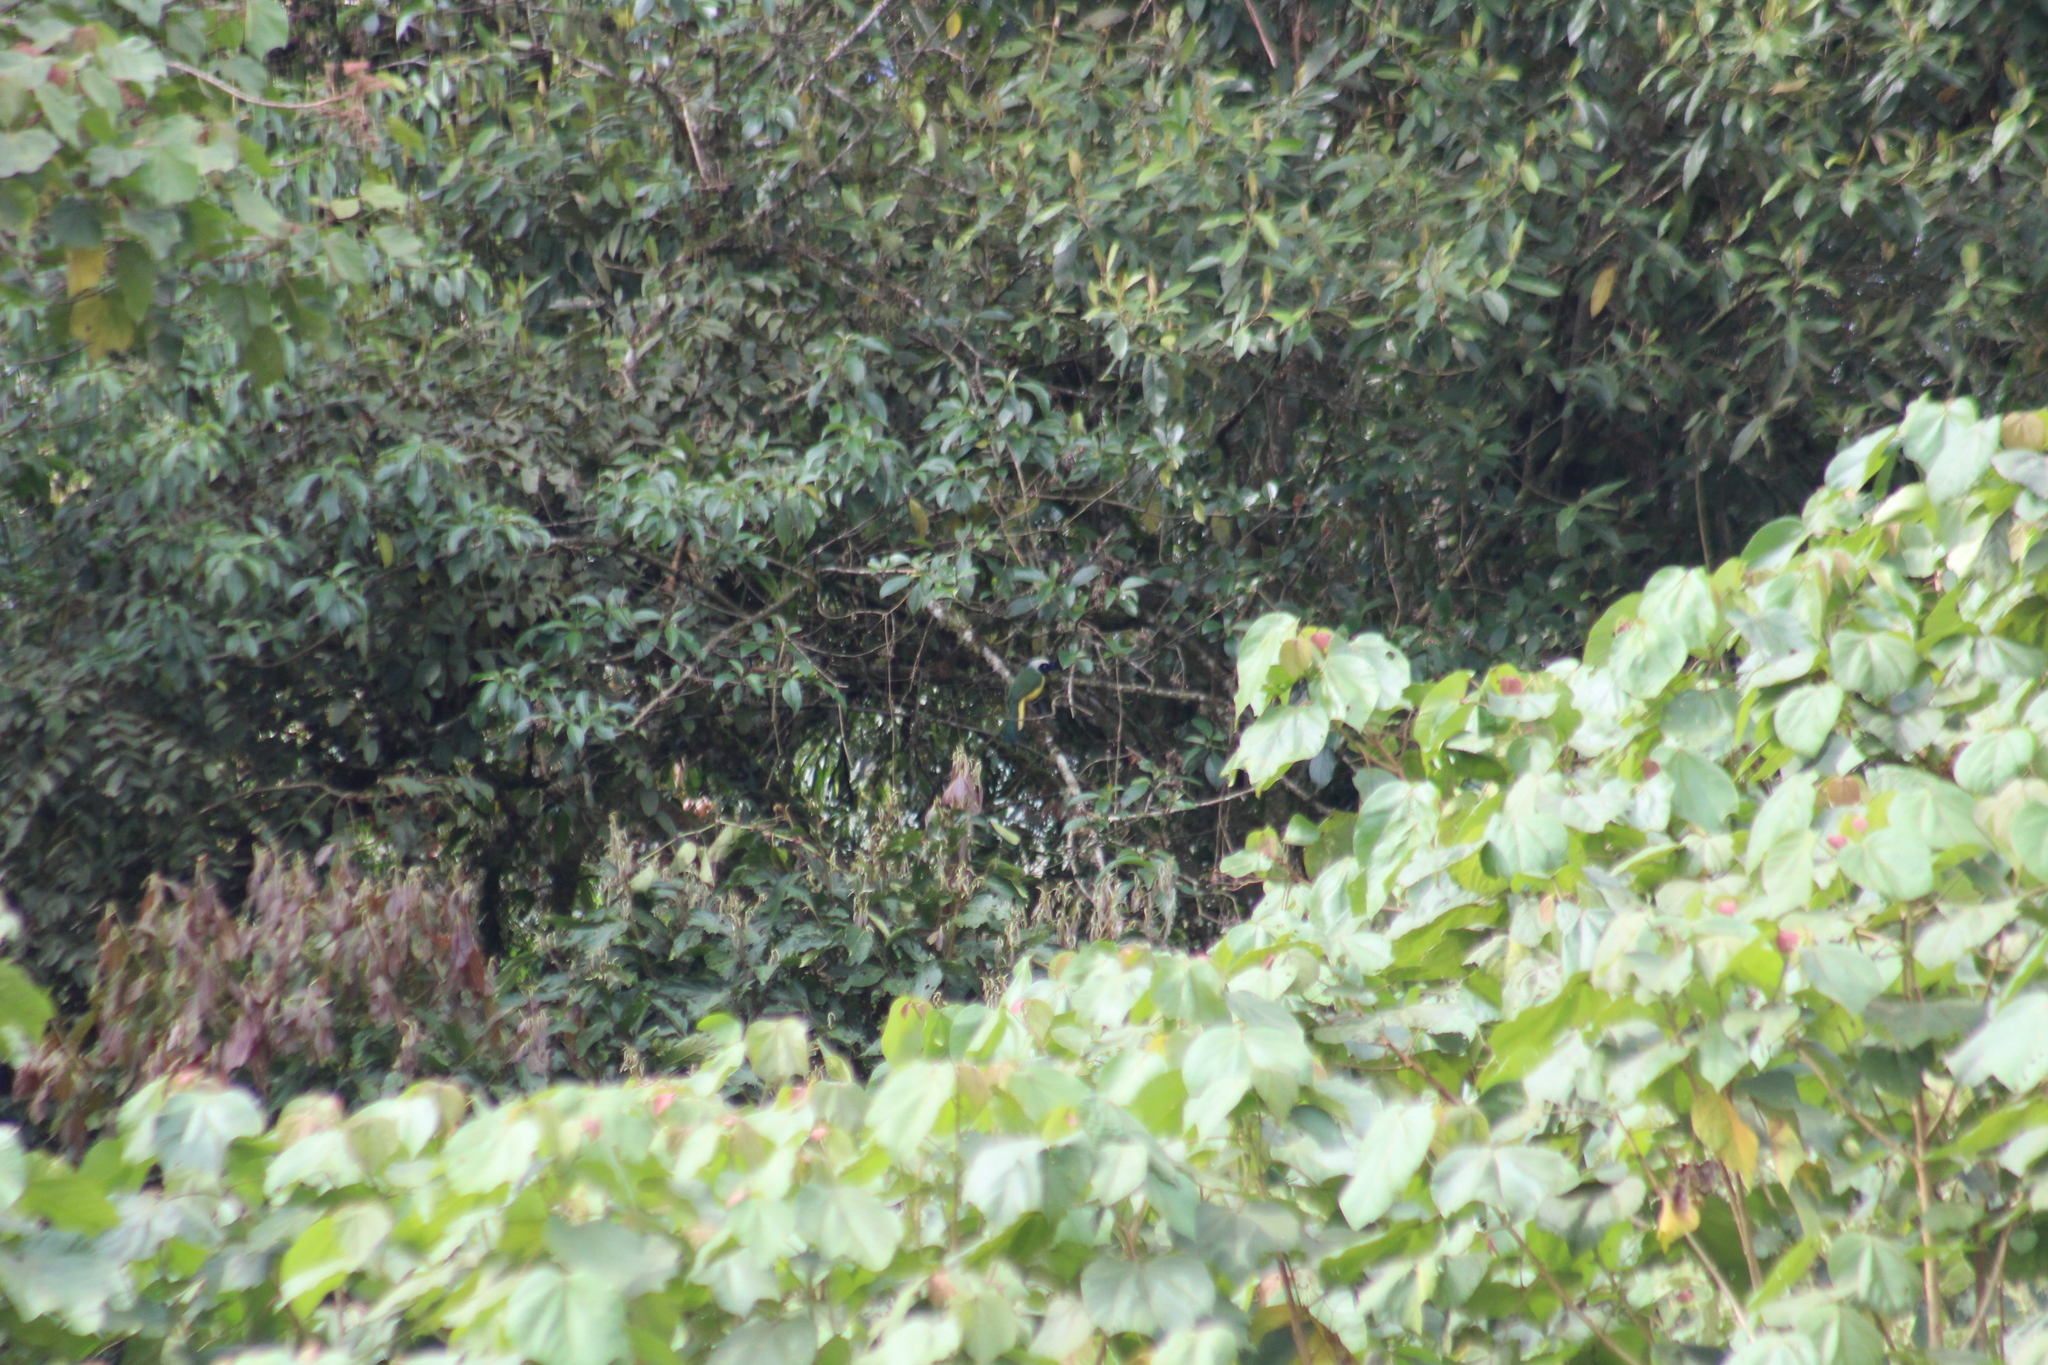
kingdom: Animalia
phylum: Chordata
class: Aves
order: Passeriformes
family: Corvidae
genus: Cyanocorax
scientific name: Cyanocorax yncas
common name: Green jay
